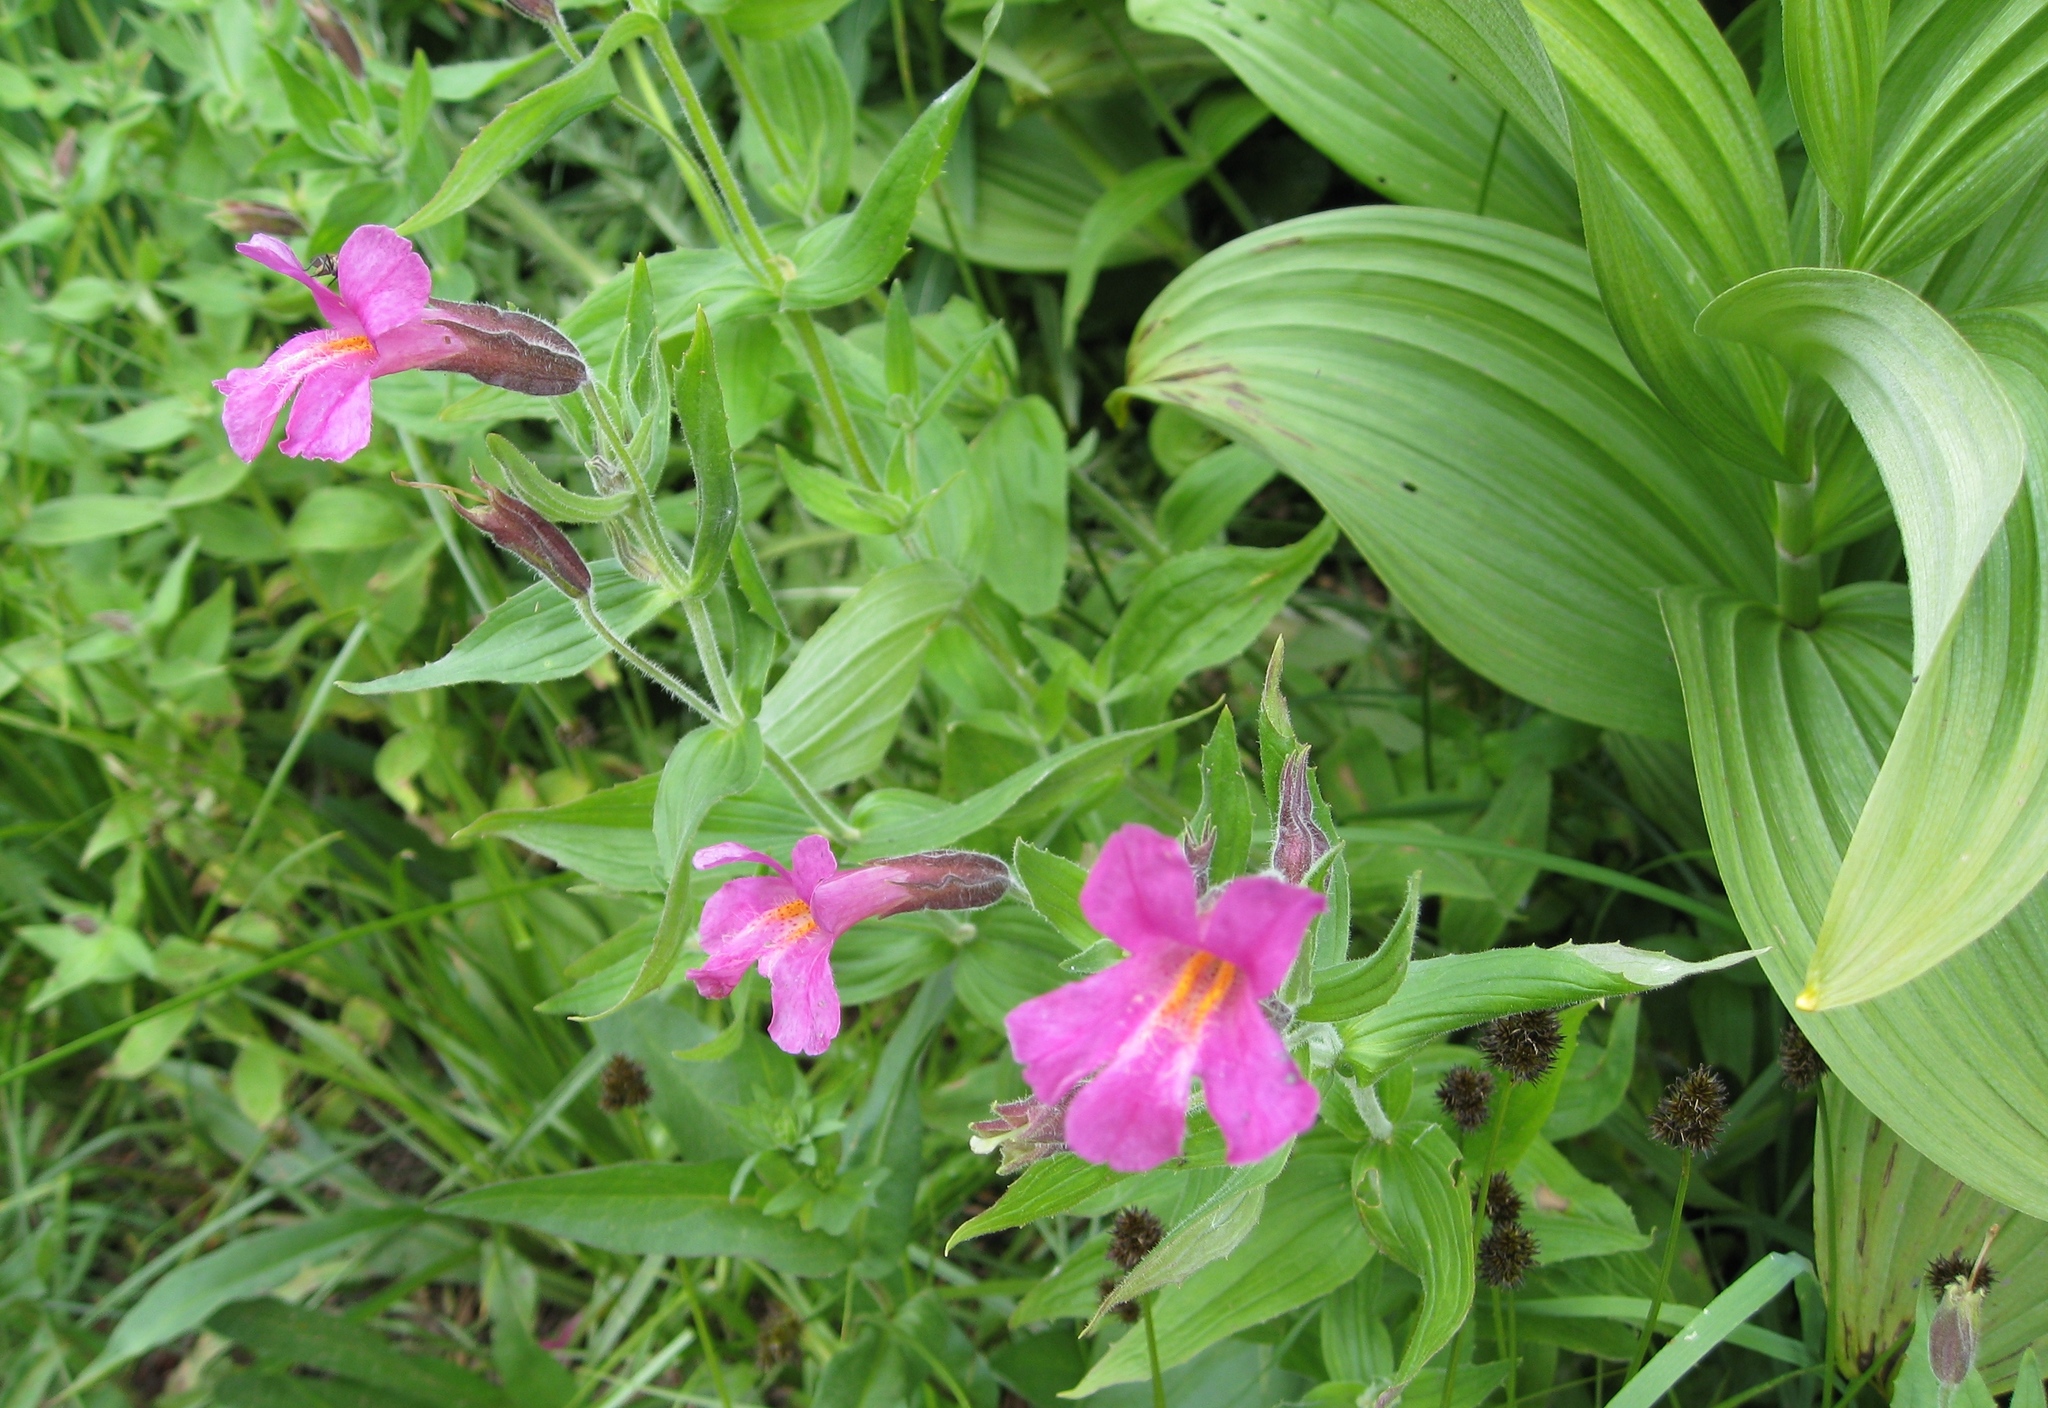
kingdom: Plantae
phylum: Tracheophyta
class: Magnoliopsida
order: Lamiales
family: Phrymaceae
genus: Erythranthe
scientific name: Erythranthe lewisii
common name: Lewis's monkey-flower
